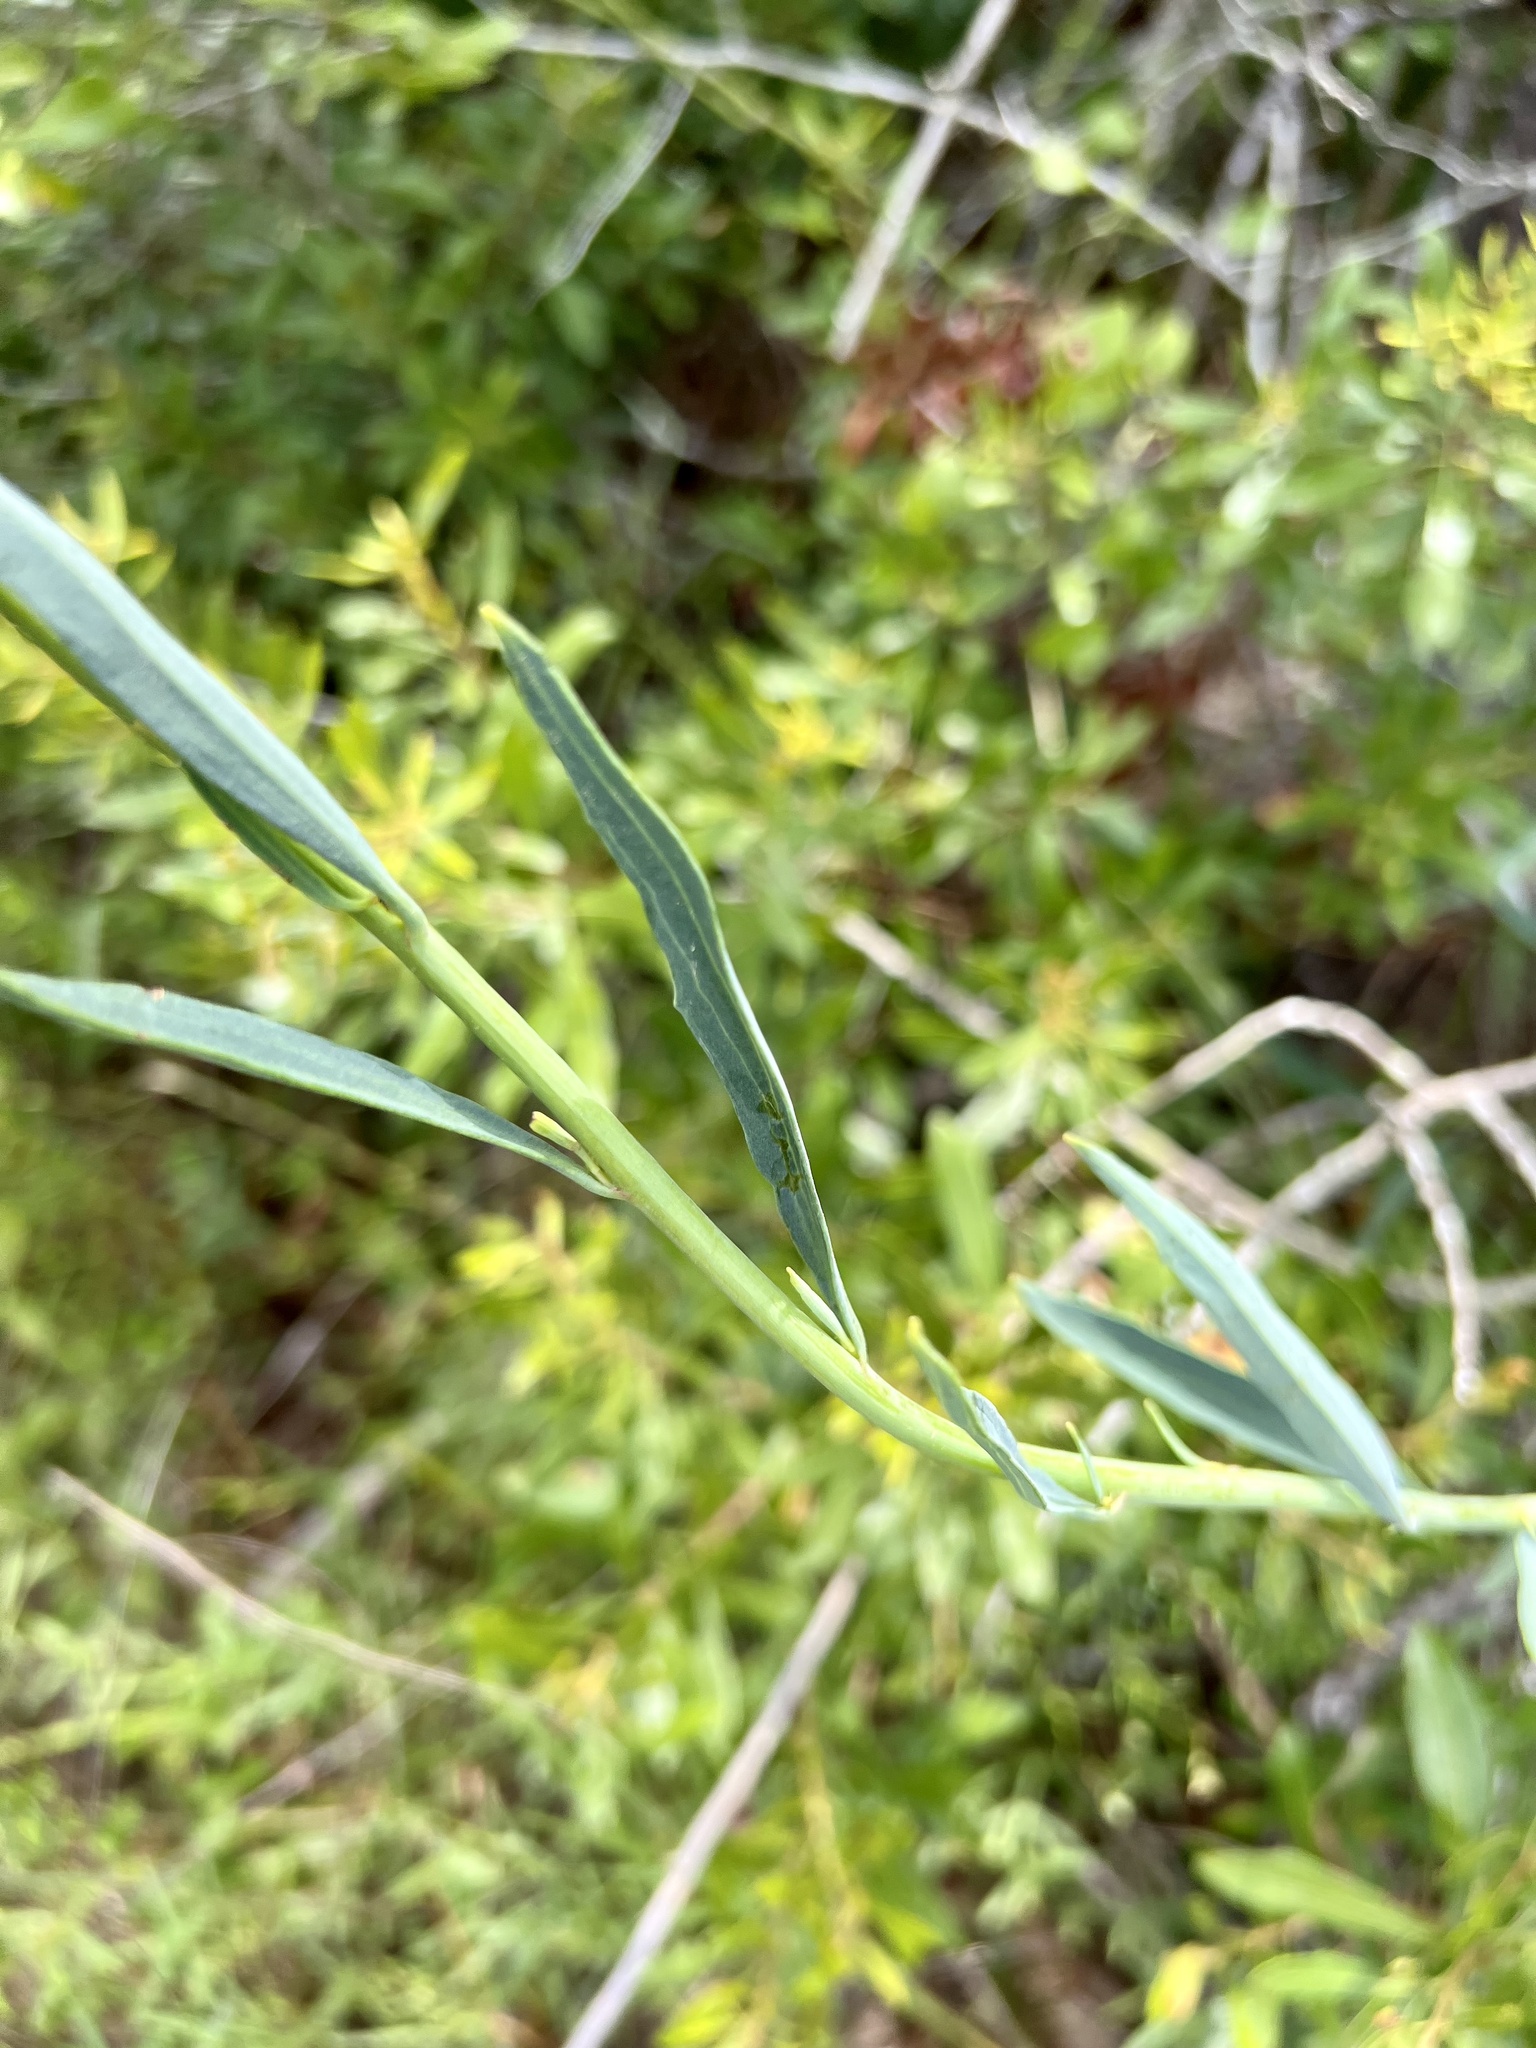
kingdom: Plantae
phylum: Tracheophyta
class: Magnoliopsida
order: Asterales
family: Asteraceae
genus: Arnoglossum
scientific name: Arnoglossum ovatum
